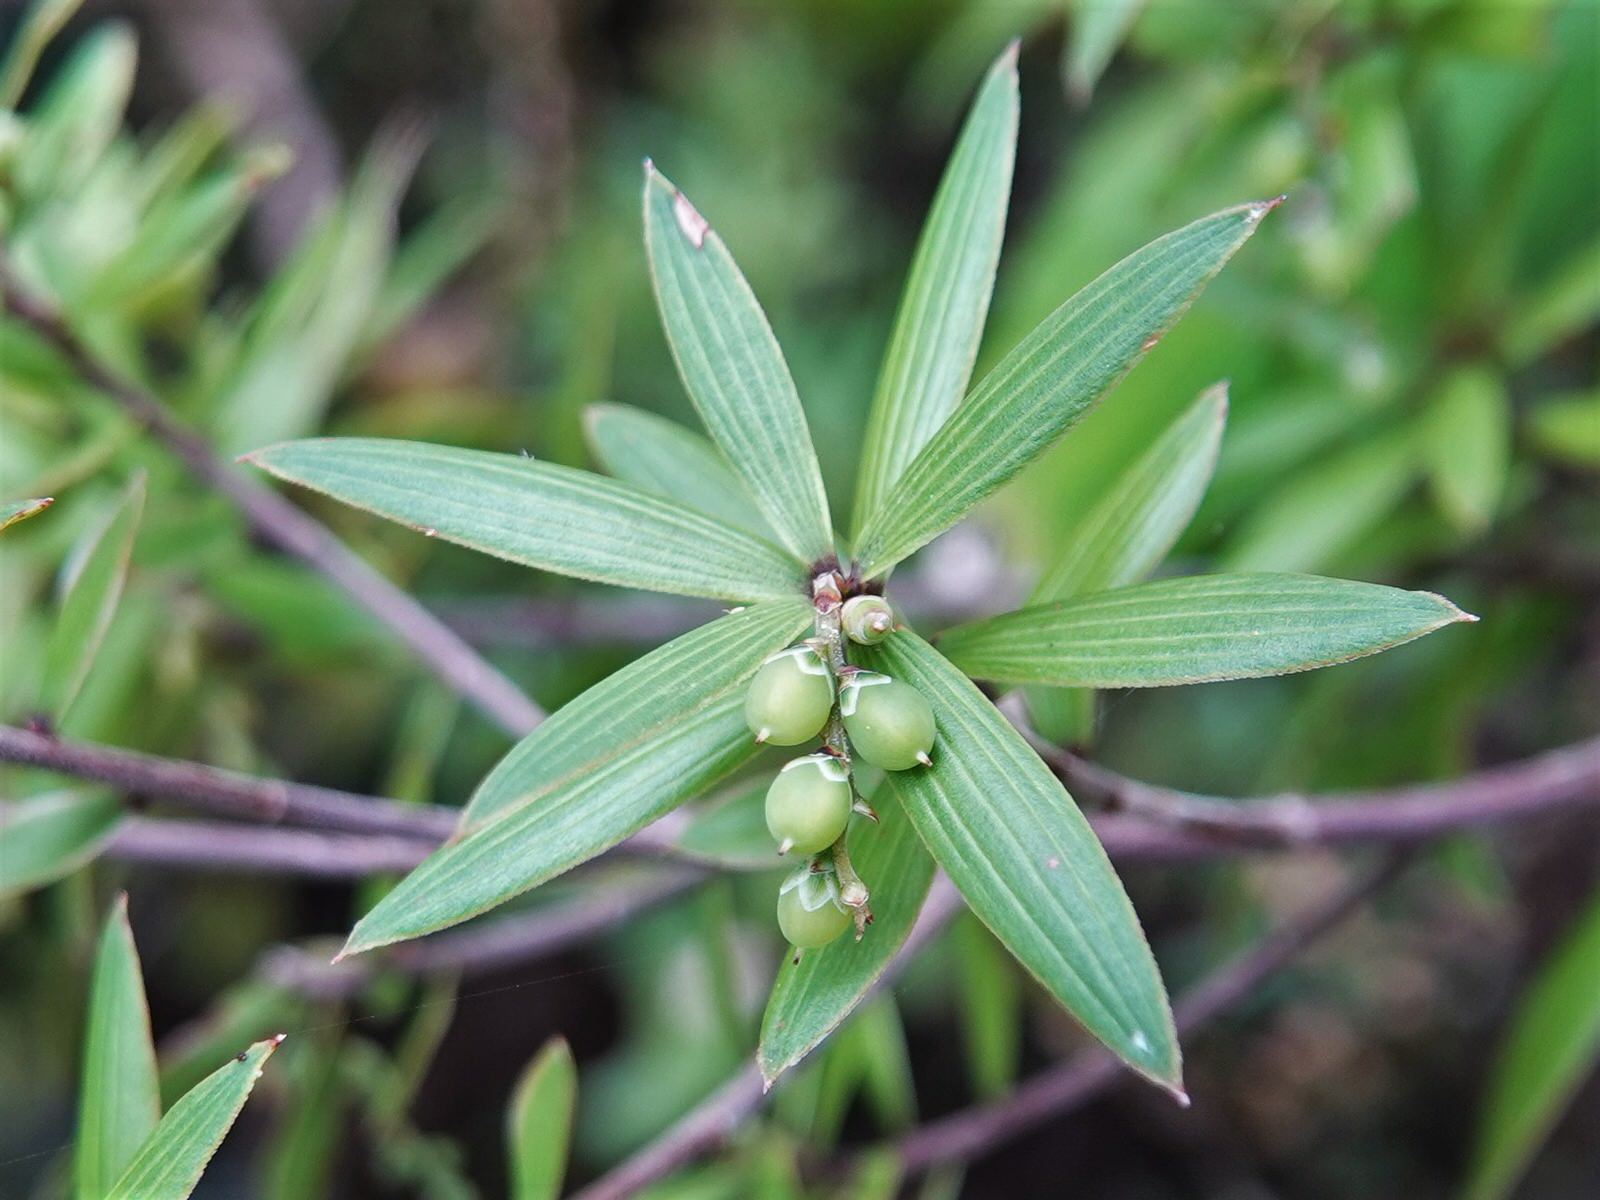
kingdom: Plantae
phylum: Tracheophyta
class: Magnoliopsida
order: Ericales
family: Ericaceae
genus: Leucopogon
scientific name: Leucopogon fasciculatus
